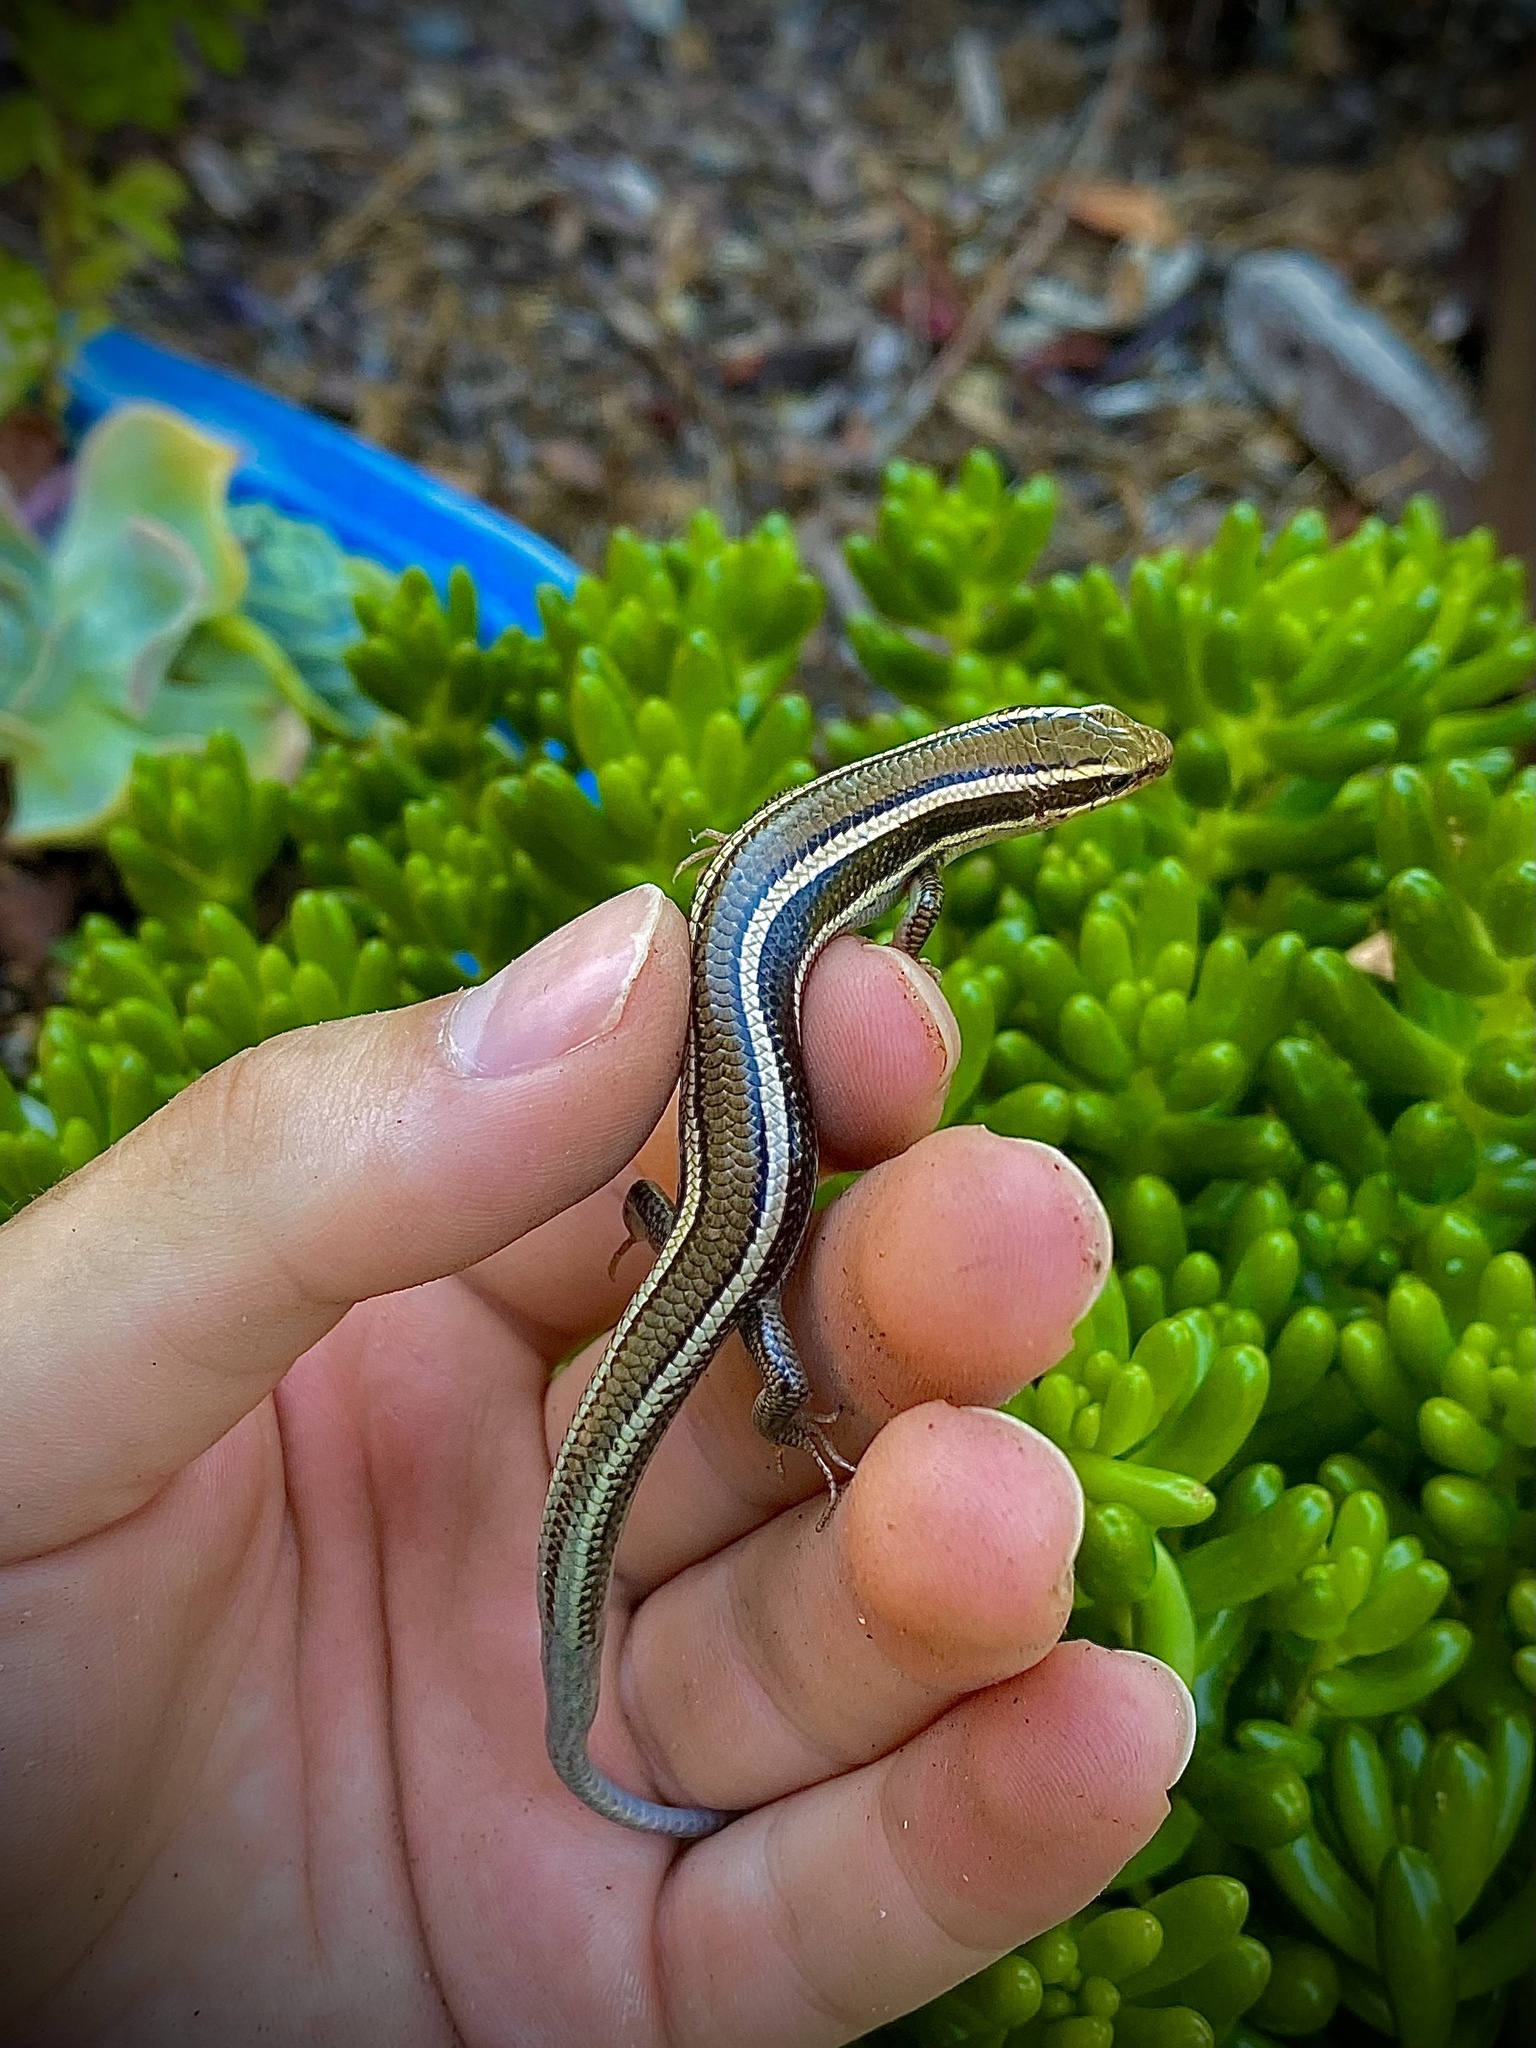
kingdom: Animalia
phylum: Chordata
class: Squamata
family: Scincidae
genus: Plestiodon
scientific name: Plestiodon skiltonianus
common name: Coronado island skink [interparietalis]
